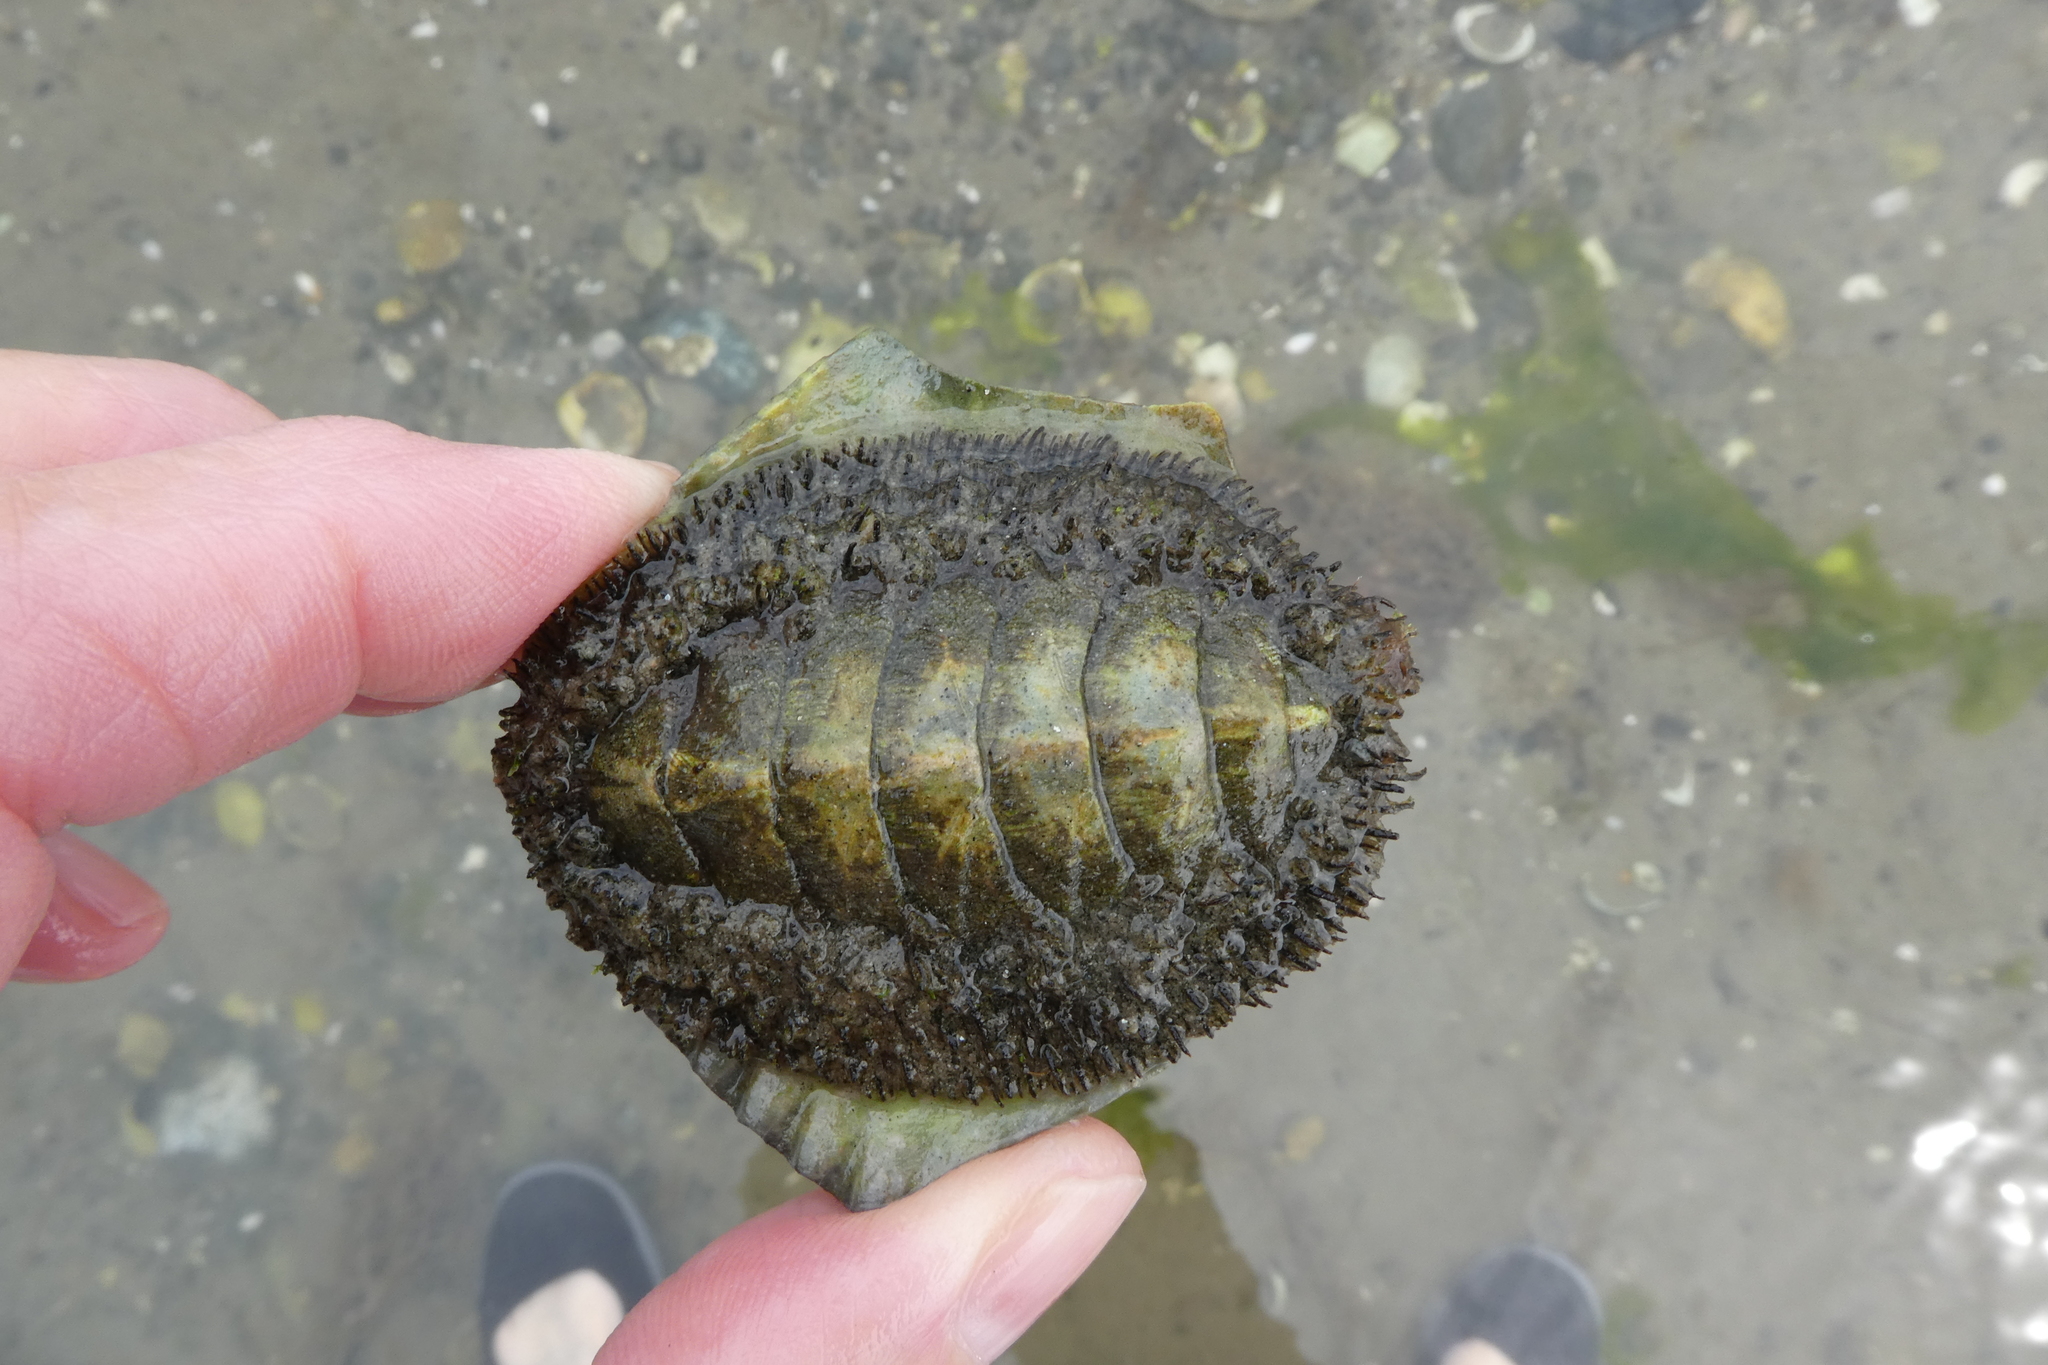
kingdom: Animalia
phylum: Mollusca
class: Polyplacophora
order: Chitonida
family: Mopaliidae
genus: Mopalia
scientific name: Mopalia muscosa
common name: Mossy chiton
